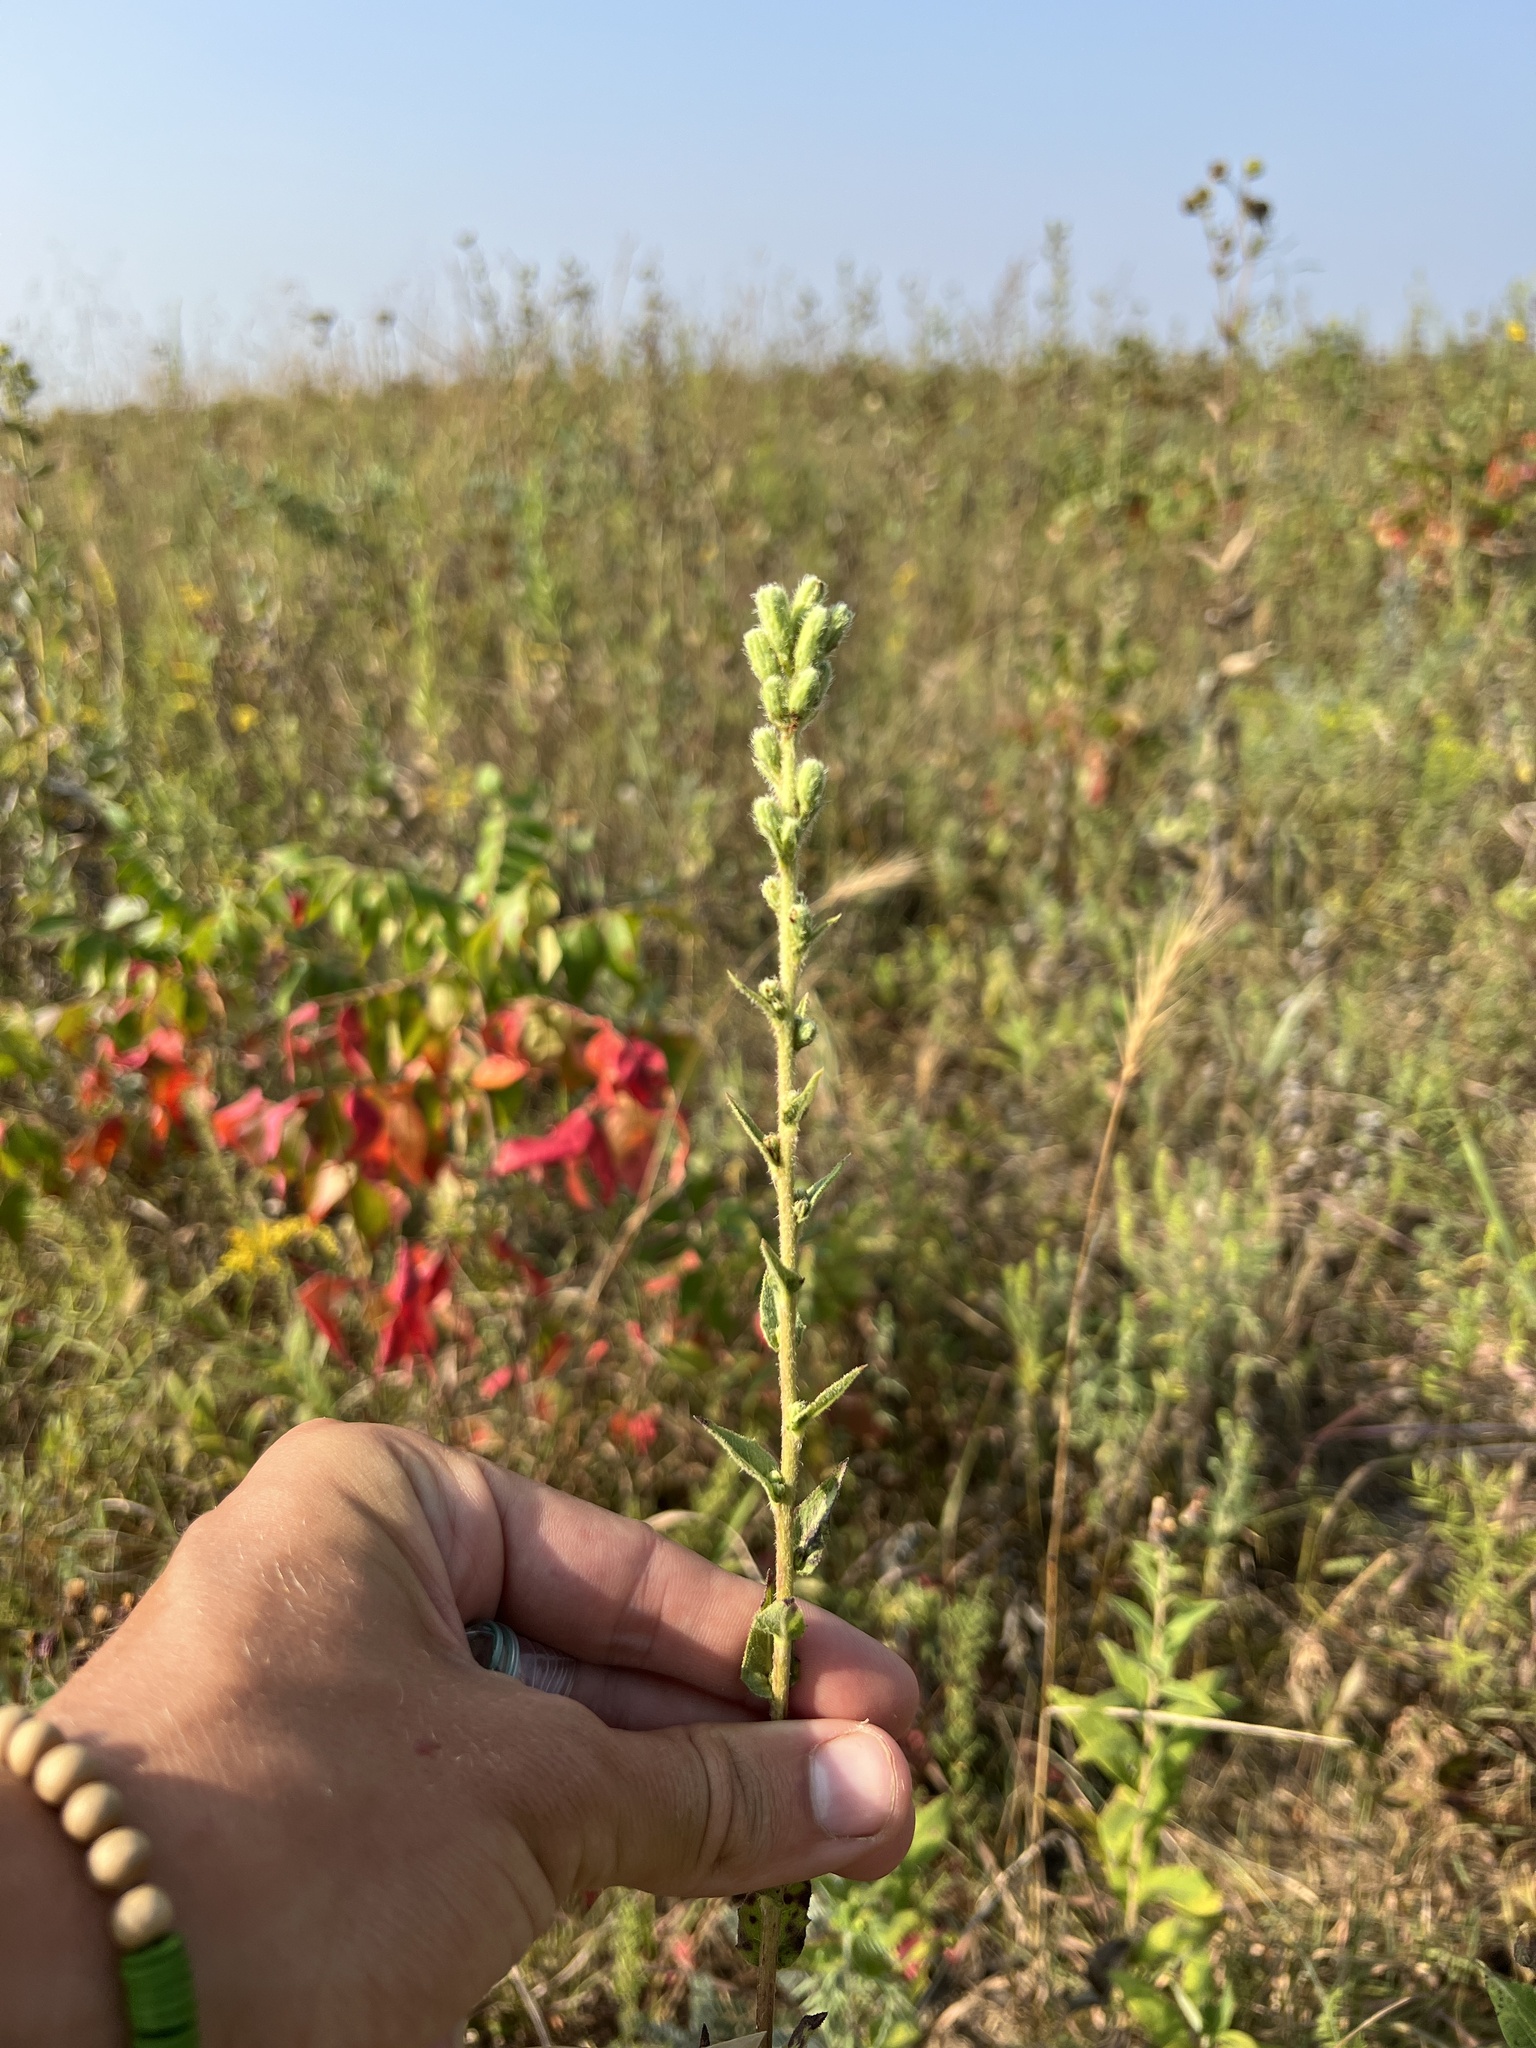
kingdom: Plantae
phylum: Tracheophyta
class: Magnoliopsida
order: Asterales
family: Asteraceae
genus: Nabalus
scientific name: Nabalus asper
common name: Rough rattlesnakeroot
